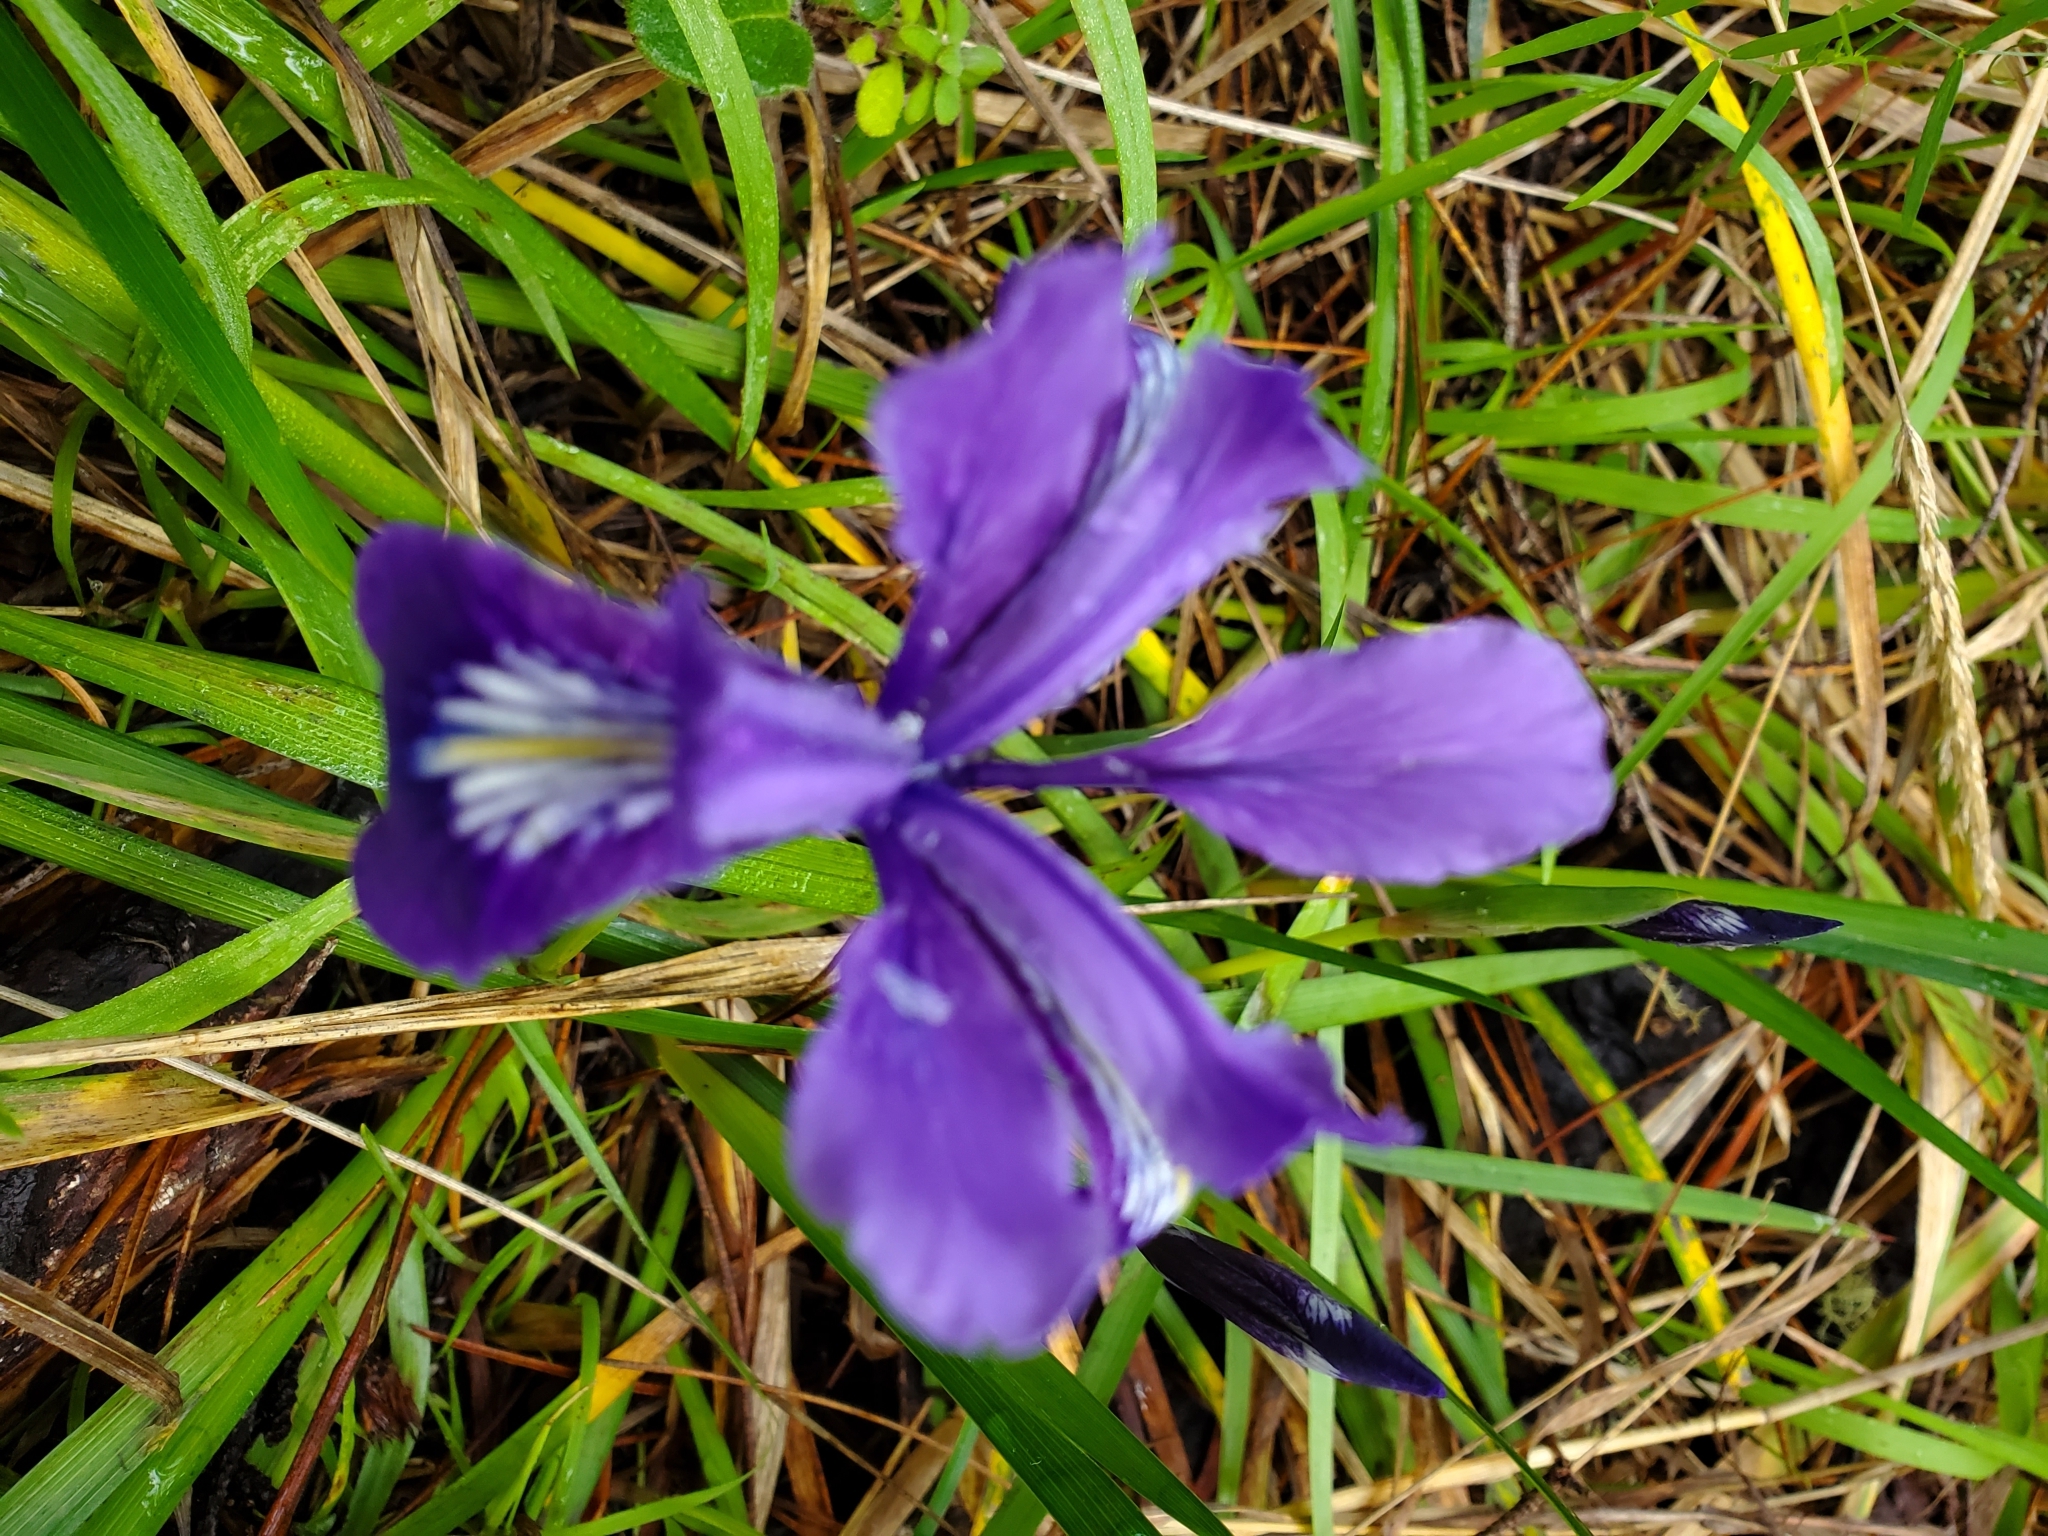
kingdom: Plantae
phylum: Tracheophyta
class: Liliopsida
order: Asparagales
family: Iridaceae
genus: Iris
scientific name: Iris douglasiana
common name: Marin iris
